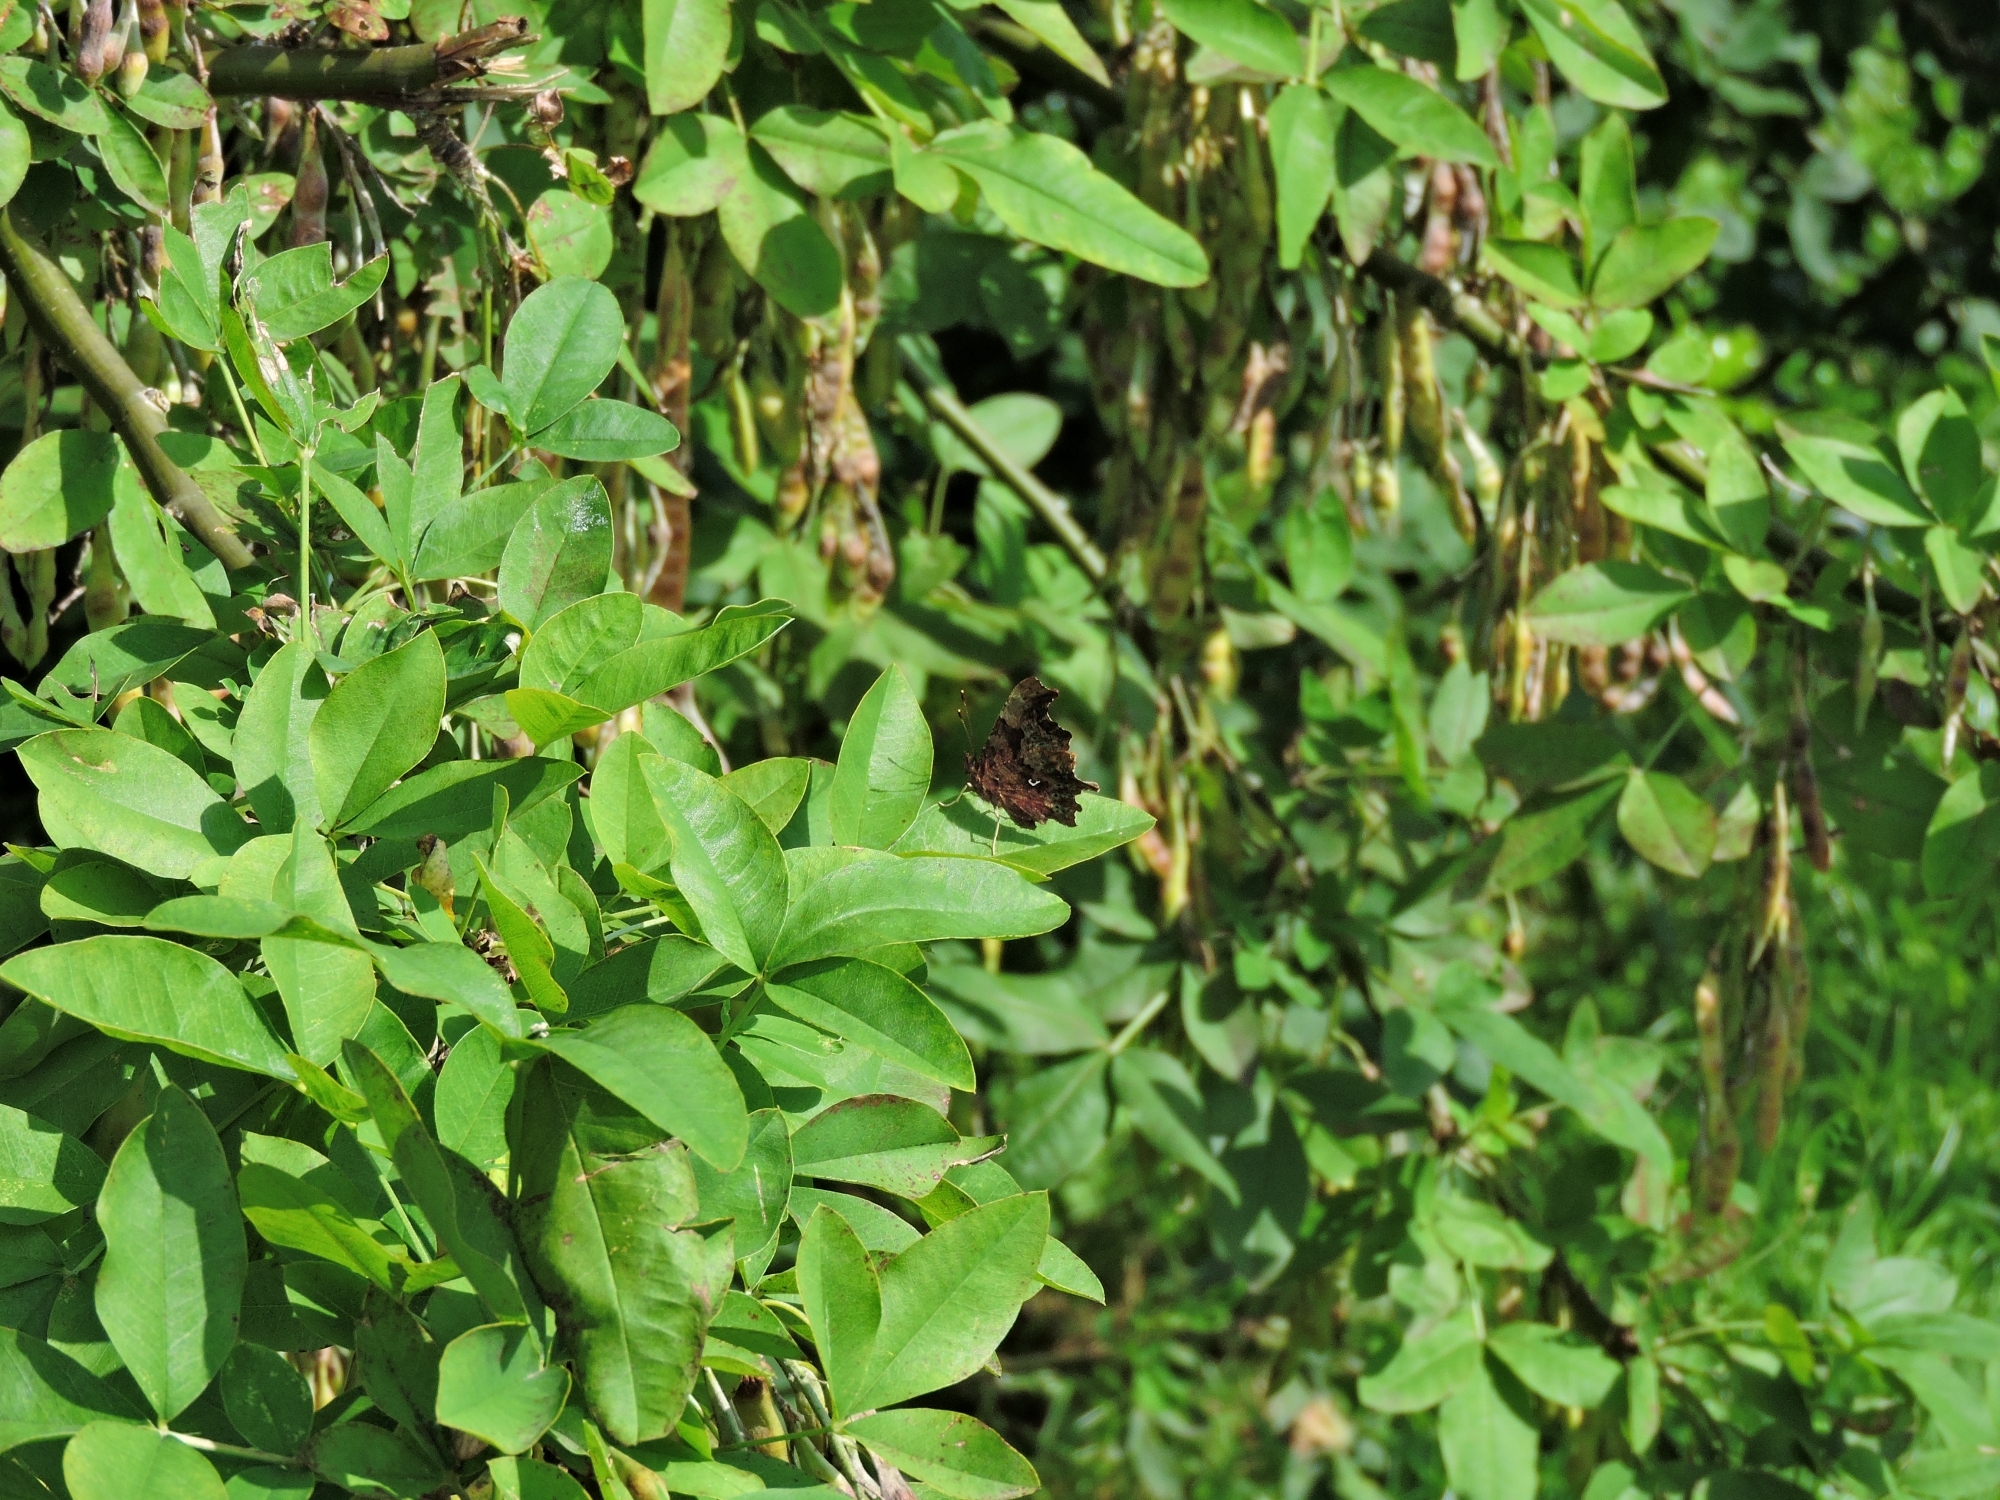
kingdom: Animalia
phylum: Arthropoda
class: Insecta
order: Lepidoptera
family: Nymphalidae
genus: Polygonia
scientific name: Polygonia c-album
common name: Comma
